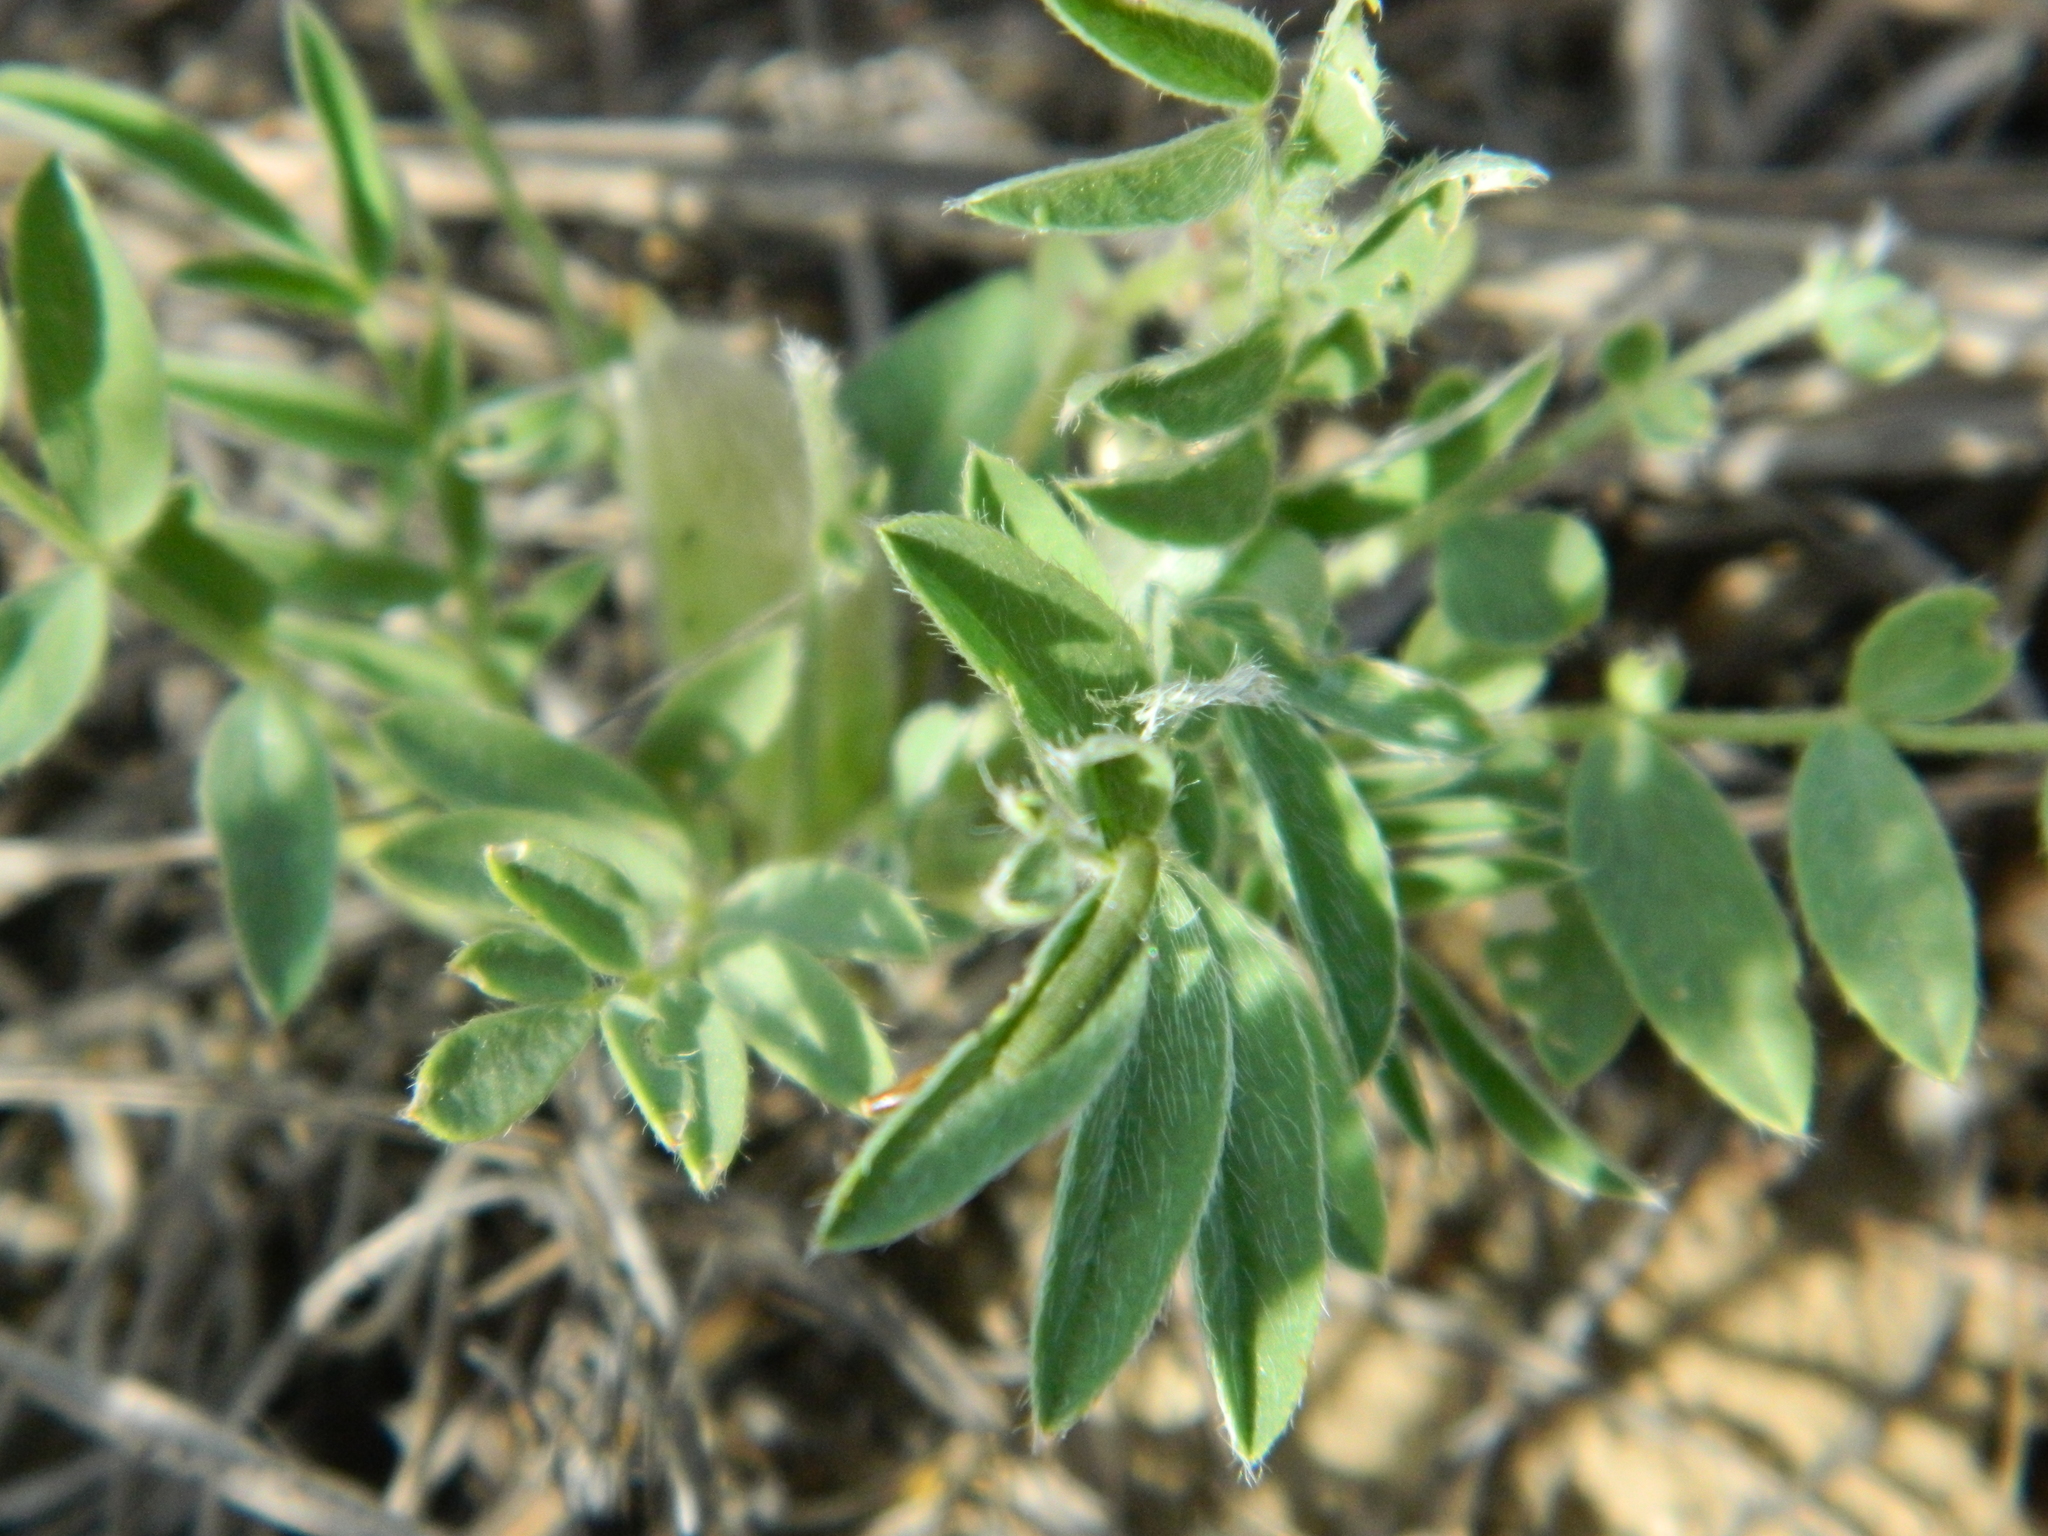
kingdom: Plantae
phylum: Tracheophyta
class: Magnoliopsida
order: Fabales
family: Fabaceae
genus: Astragalus
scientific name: Astragalus lotiflorus
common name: Lotus milk-vetch
